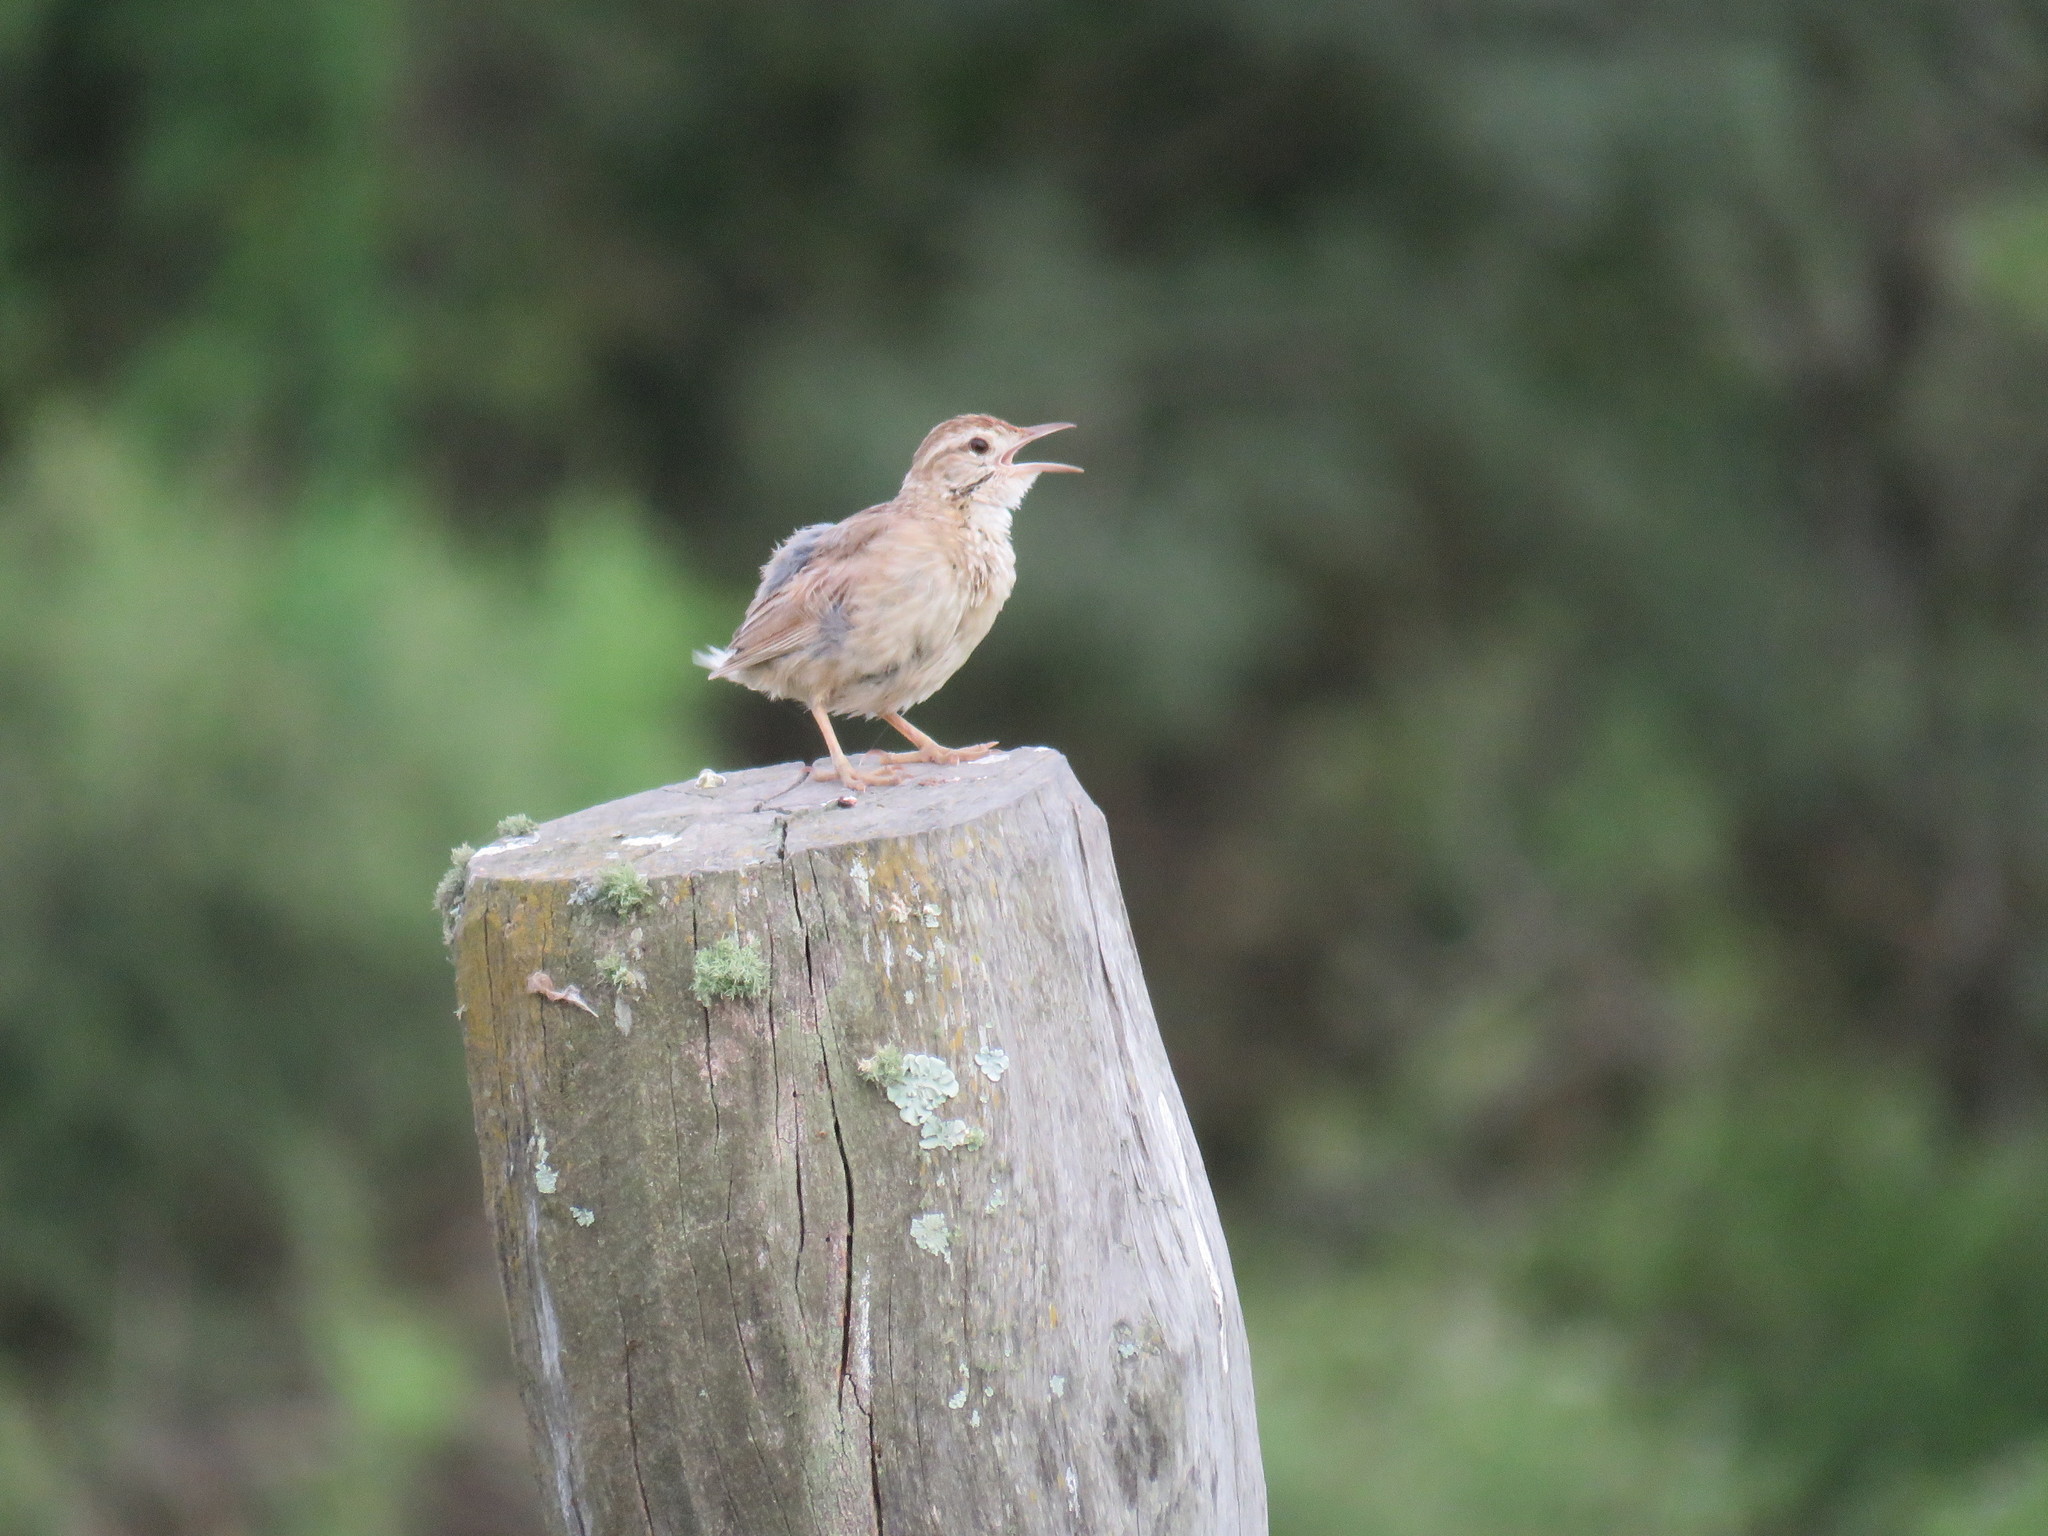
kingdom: Animalia
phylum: Chordata
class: Aves
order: Passeriformes
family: Furnariidae
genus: Anumbius
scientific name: Anumbius annumbi
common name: Firewood-gatherer
